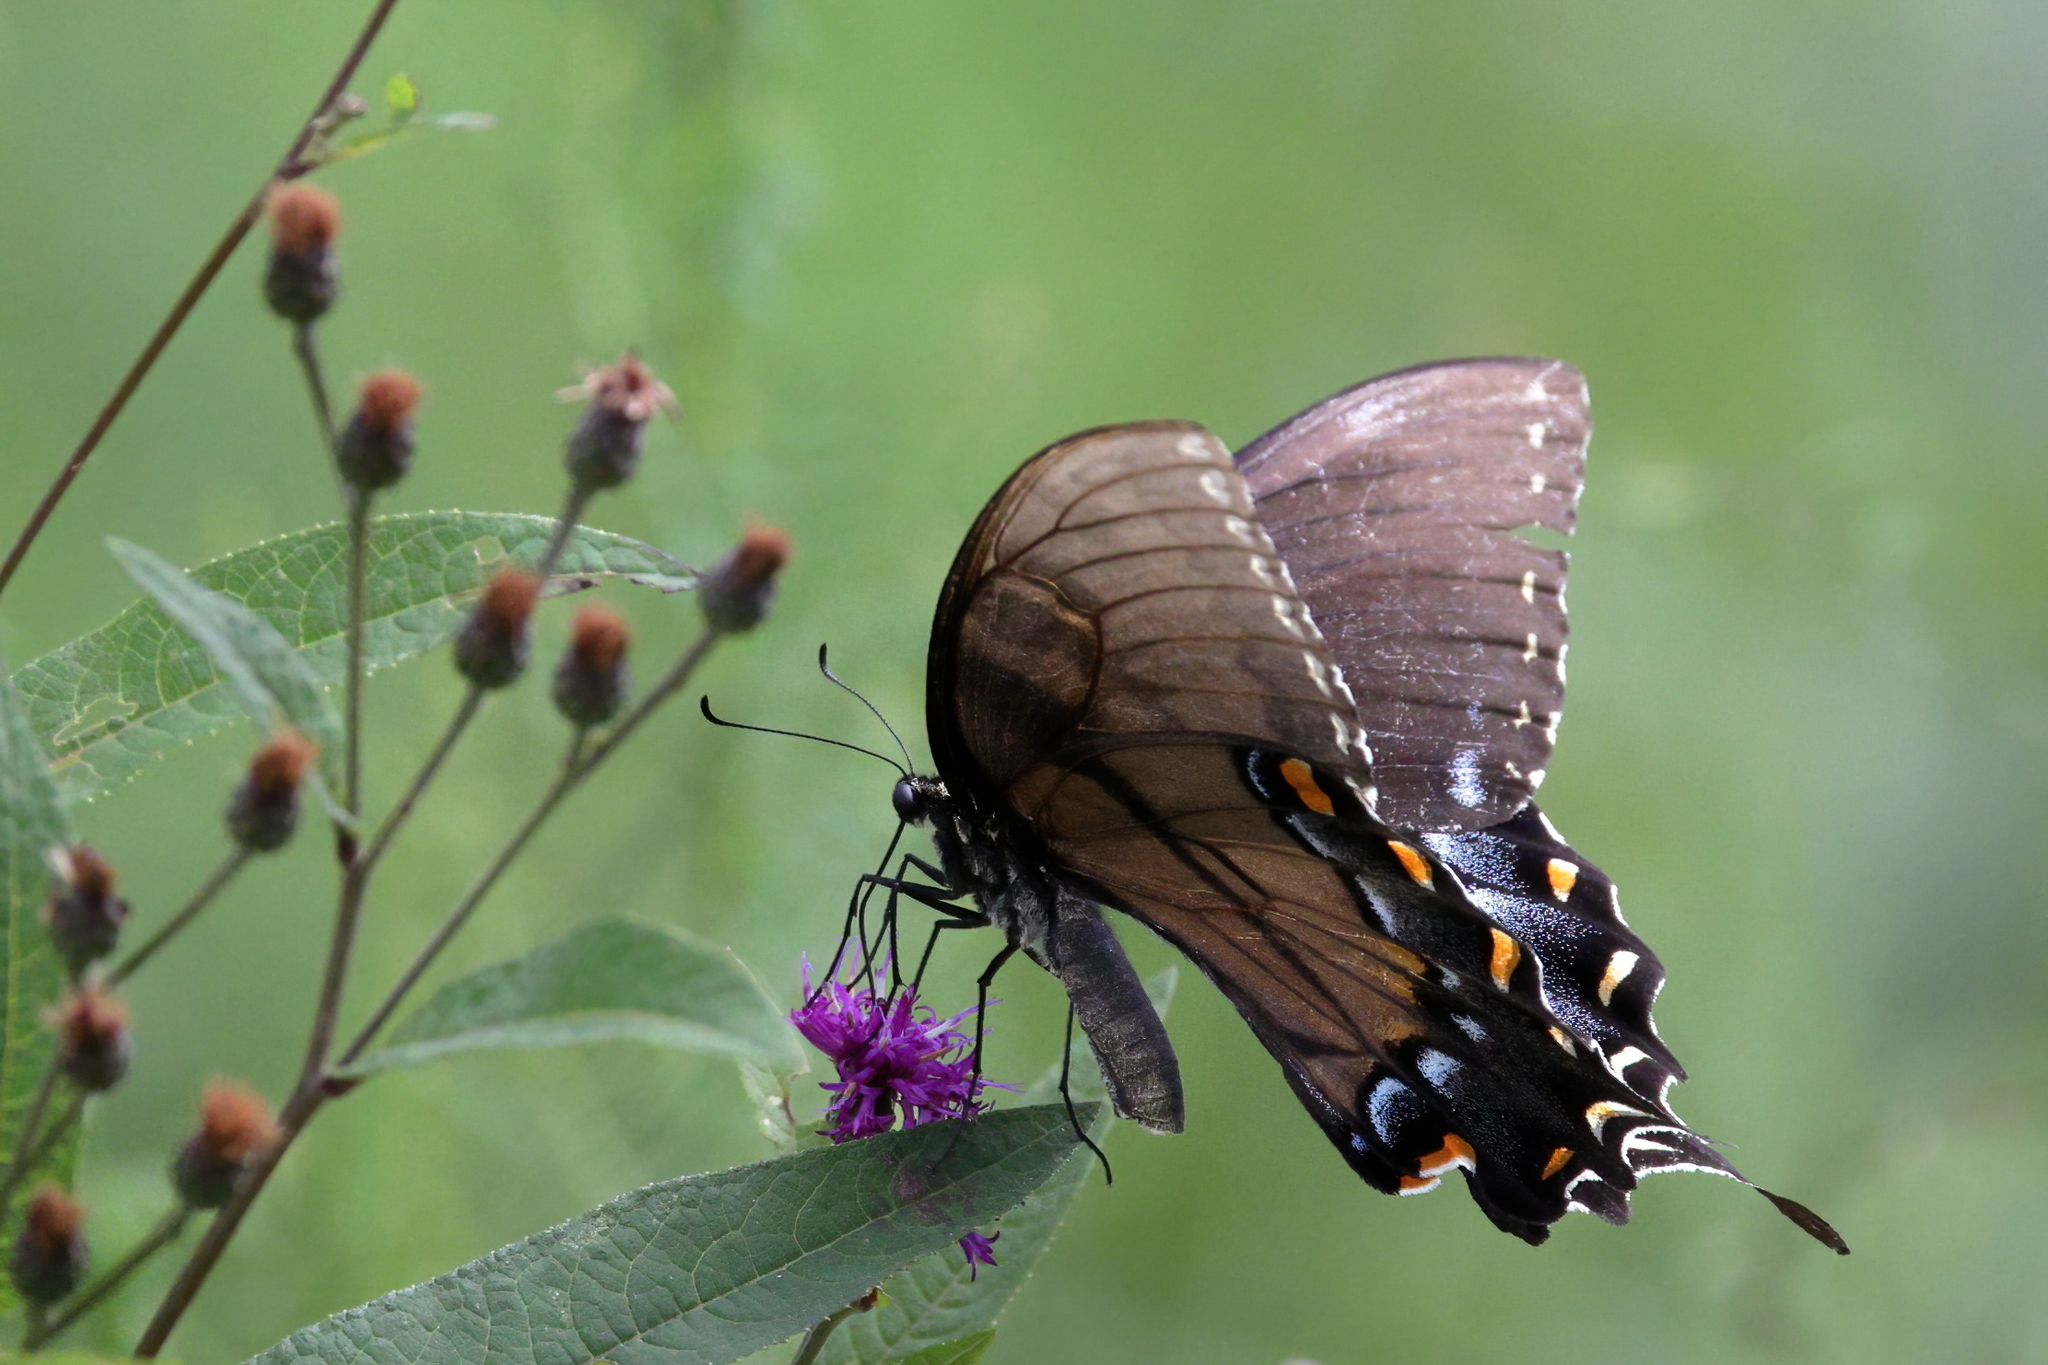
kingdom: Animalia
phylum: Arthropoda
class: Insecta
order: Lepidoptera
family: Papilionidae
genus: Papilio
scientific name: Papilio glaucus
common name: Tiger swallowtail
